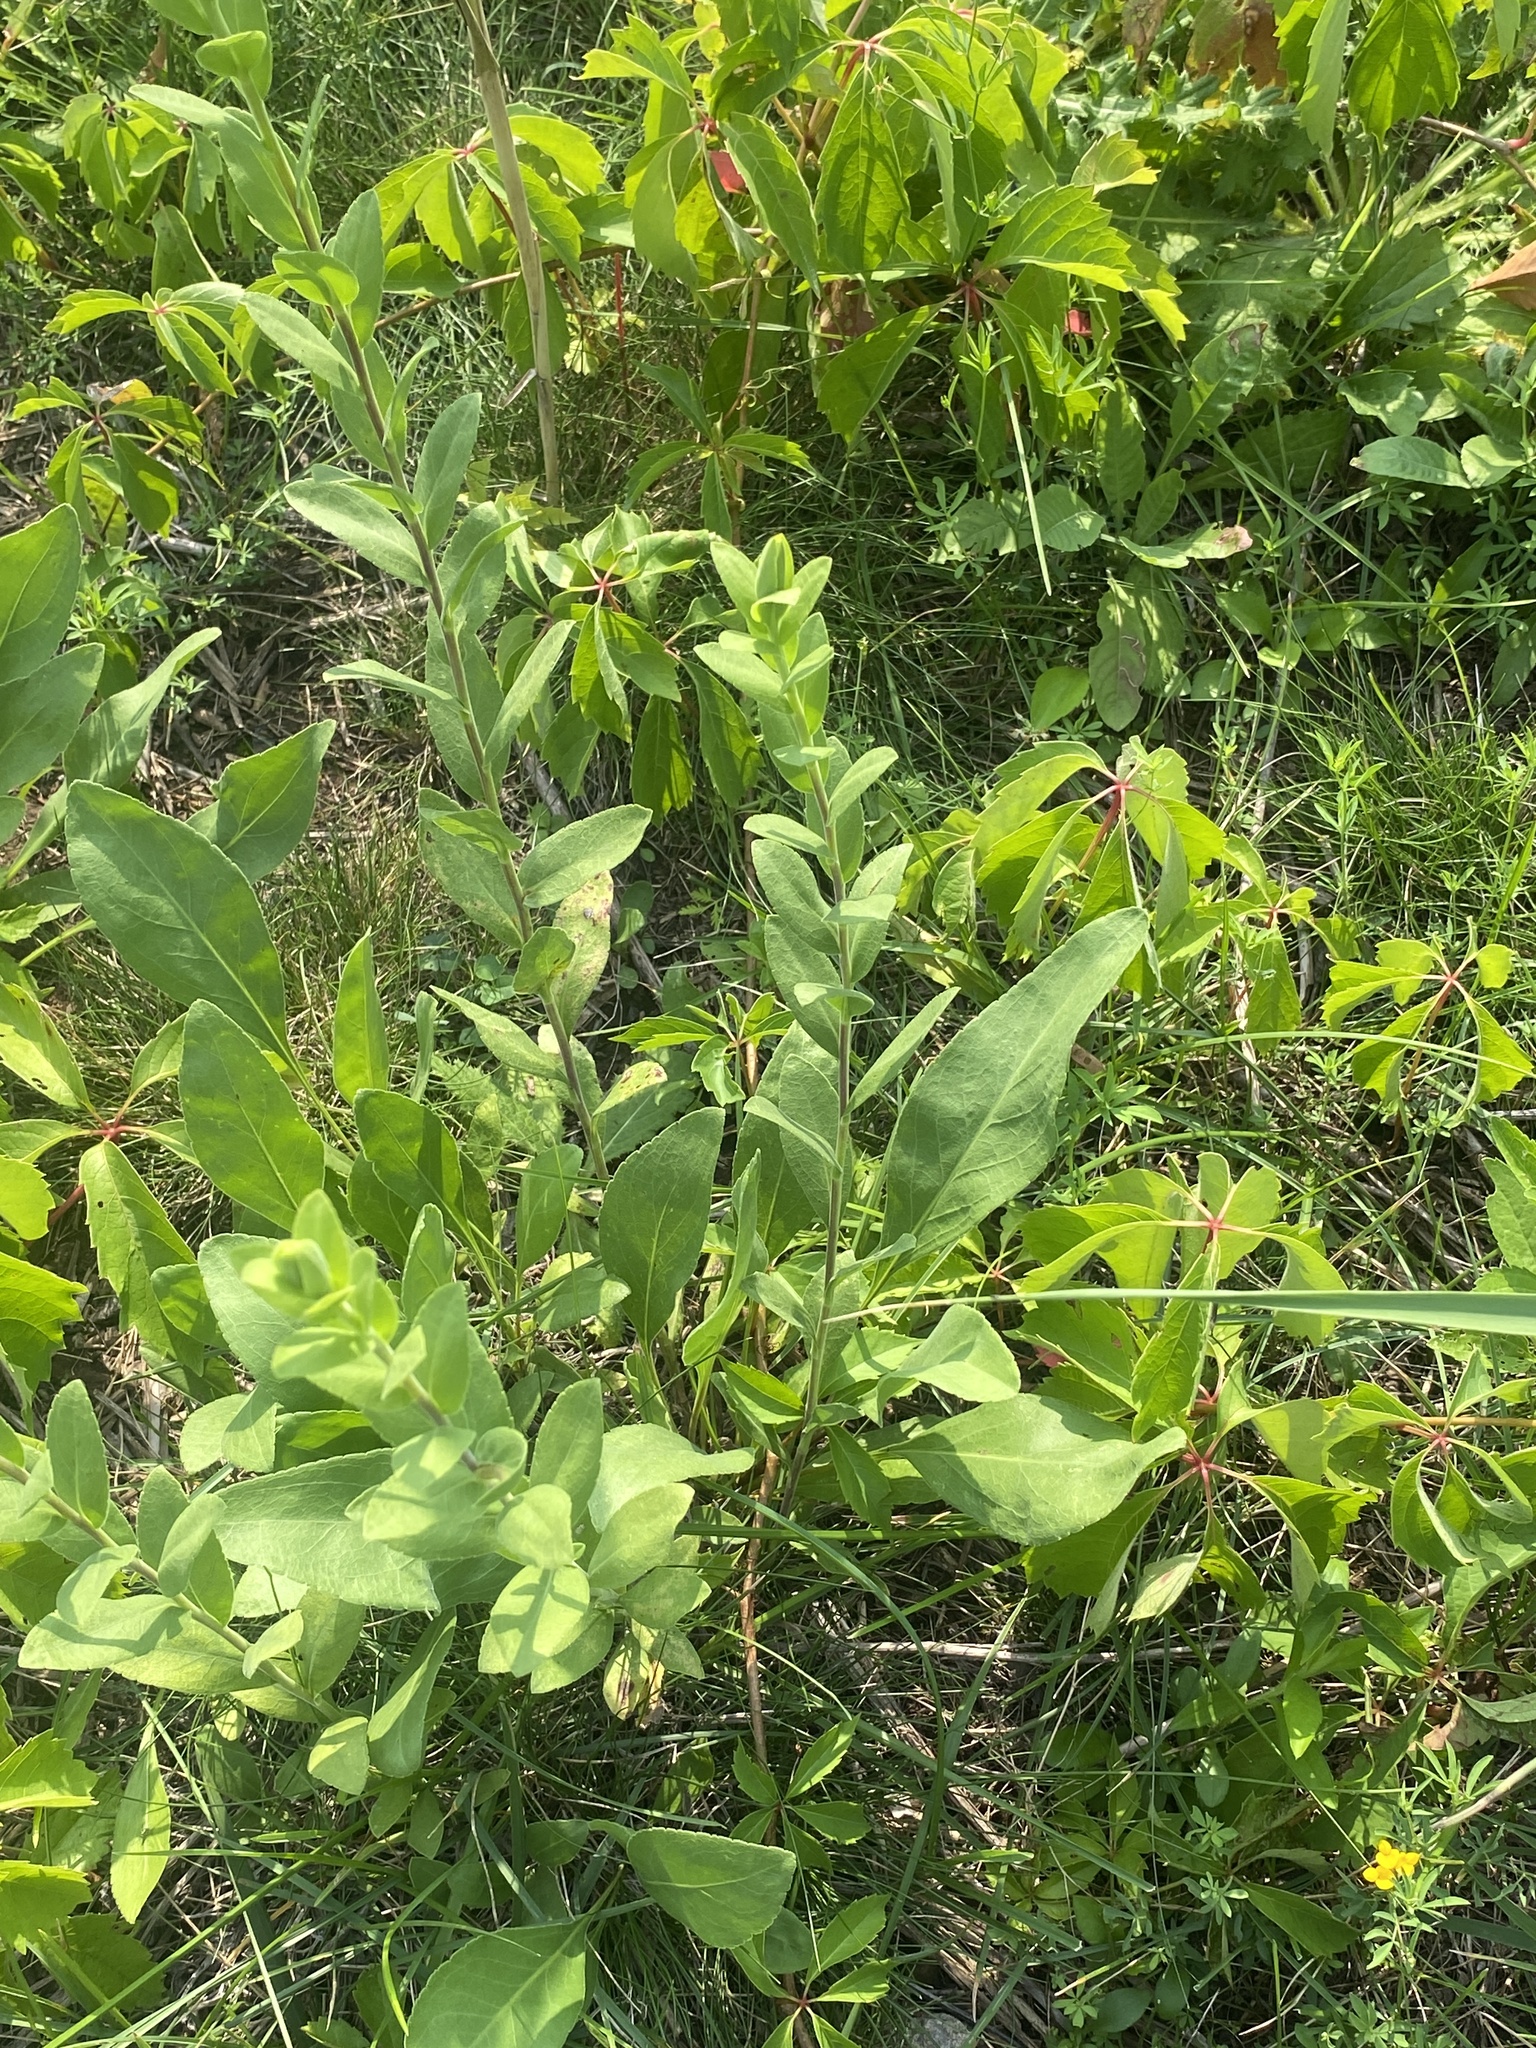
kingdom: Plantae
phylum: Tracheophyta
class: Magnoliopsida
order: Asterales
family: Asteraceae
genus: Solidago
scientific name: Solidago rigida
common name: Rigid goldenrod
